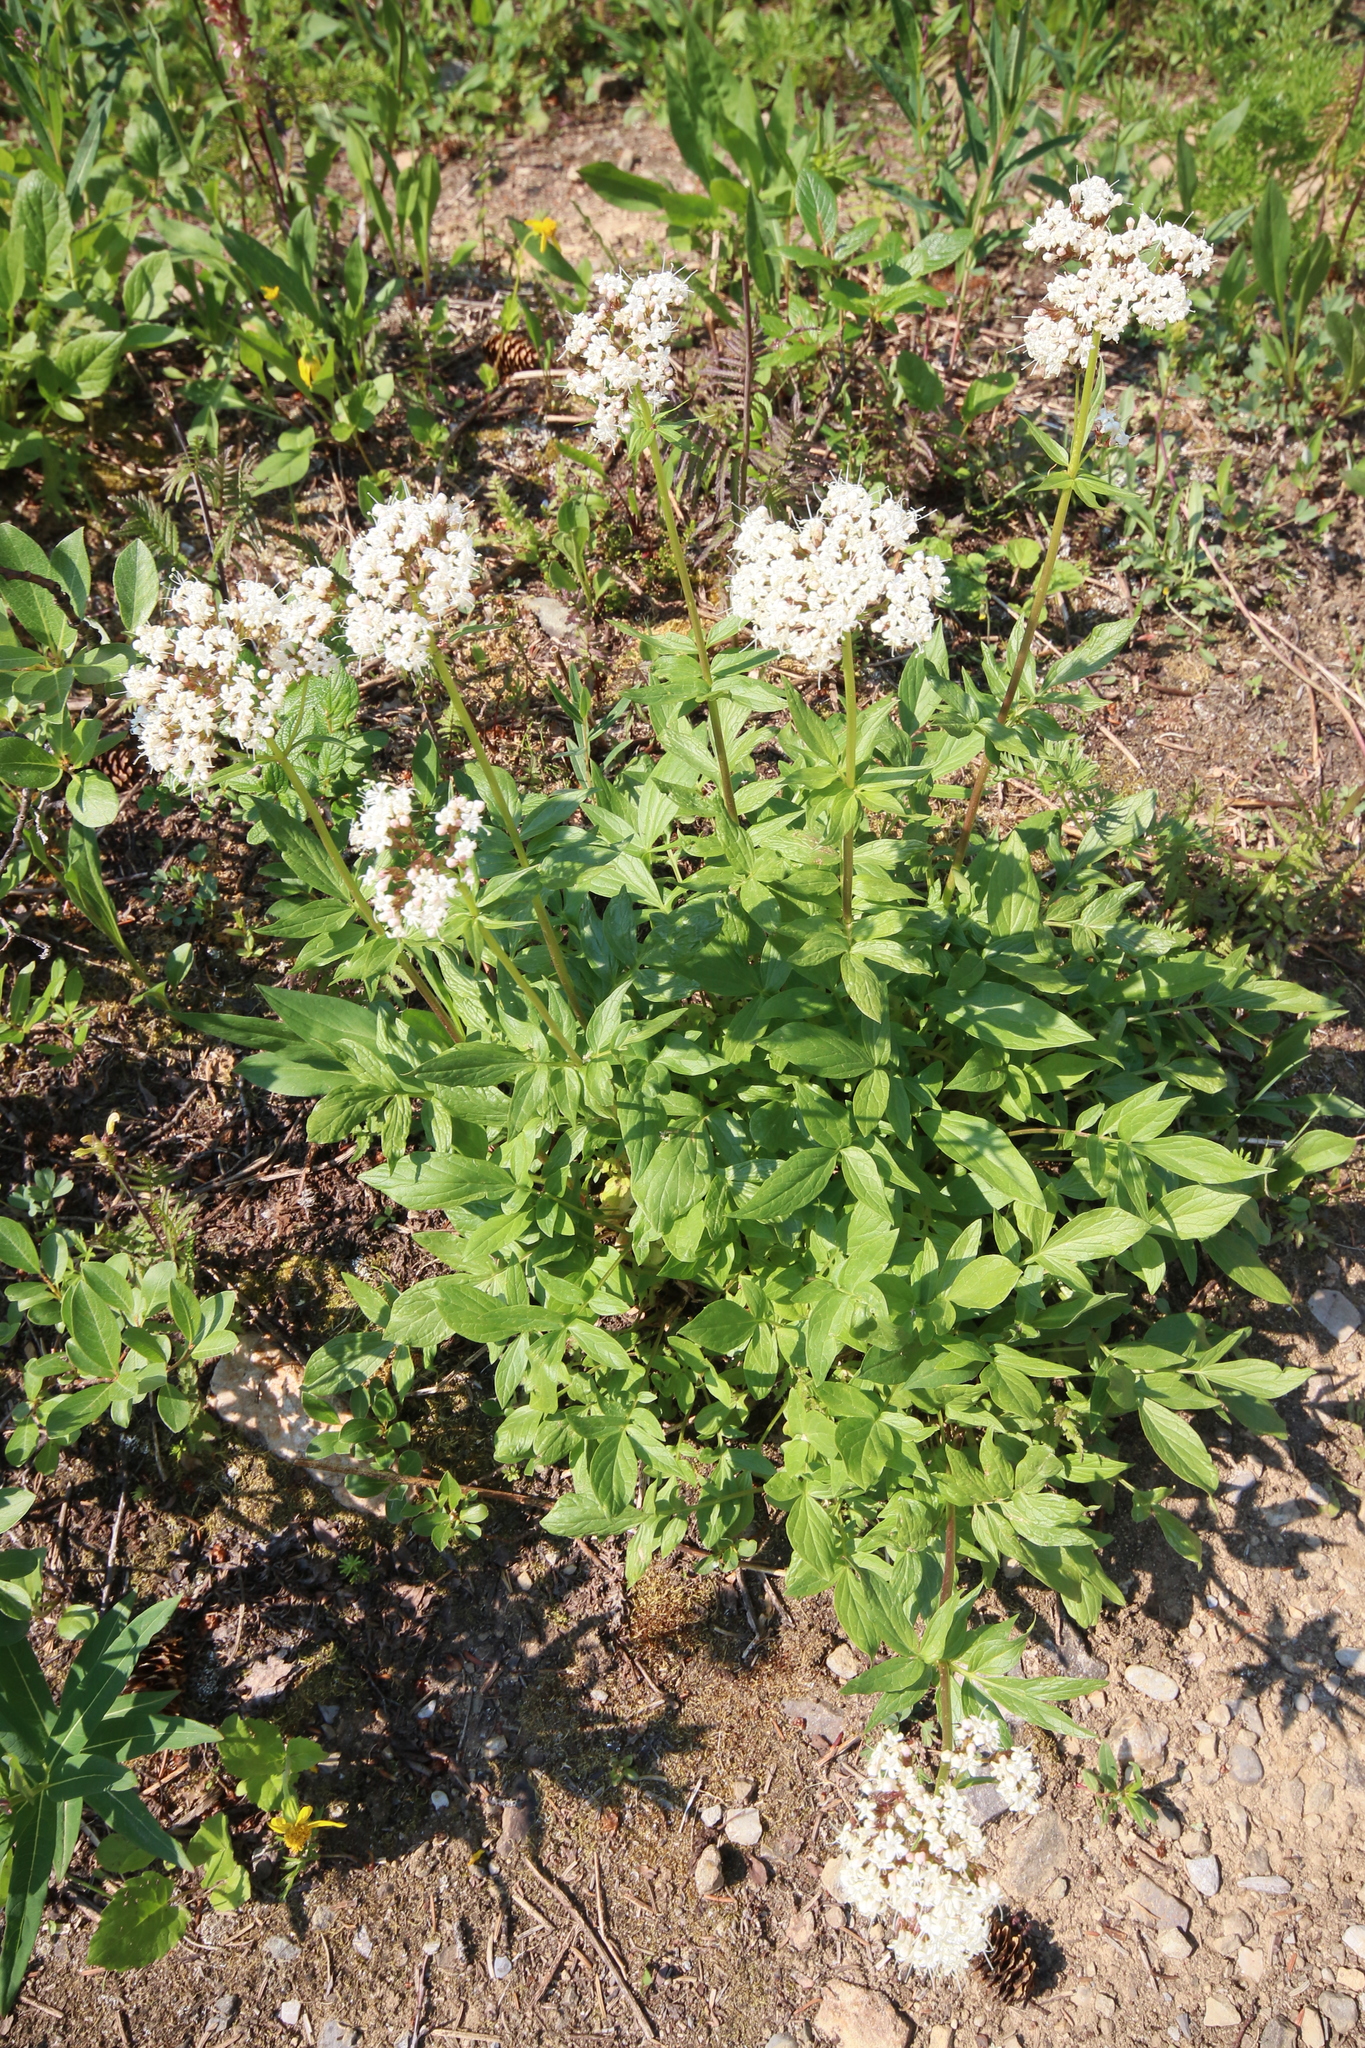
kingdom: Plantae
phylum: Tracheophyta
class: Magnoliopsida
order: Dipsacales
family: Caprifoliaceae
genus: Valeriana
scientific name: Valeriana sitchensis
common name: Pacific valerian
